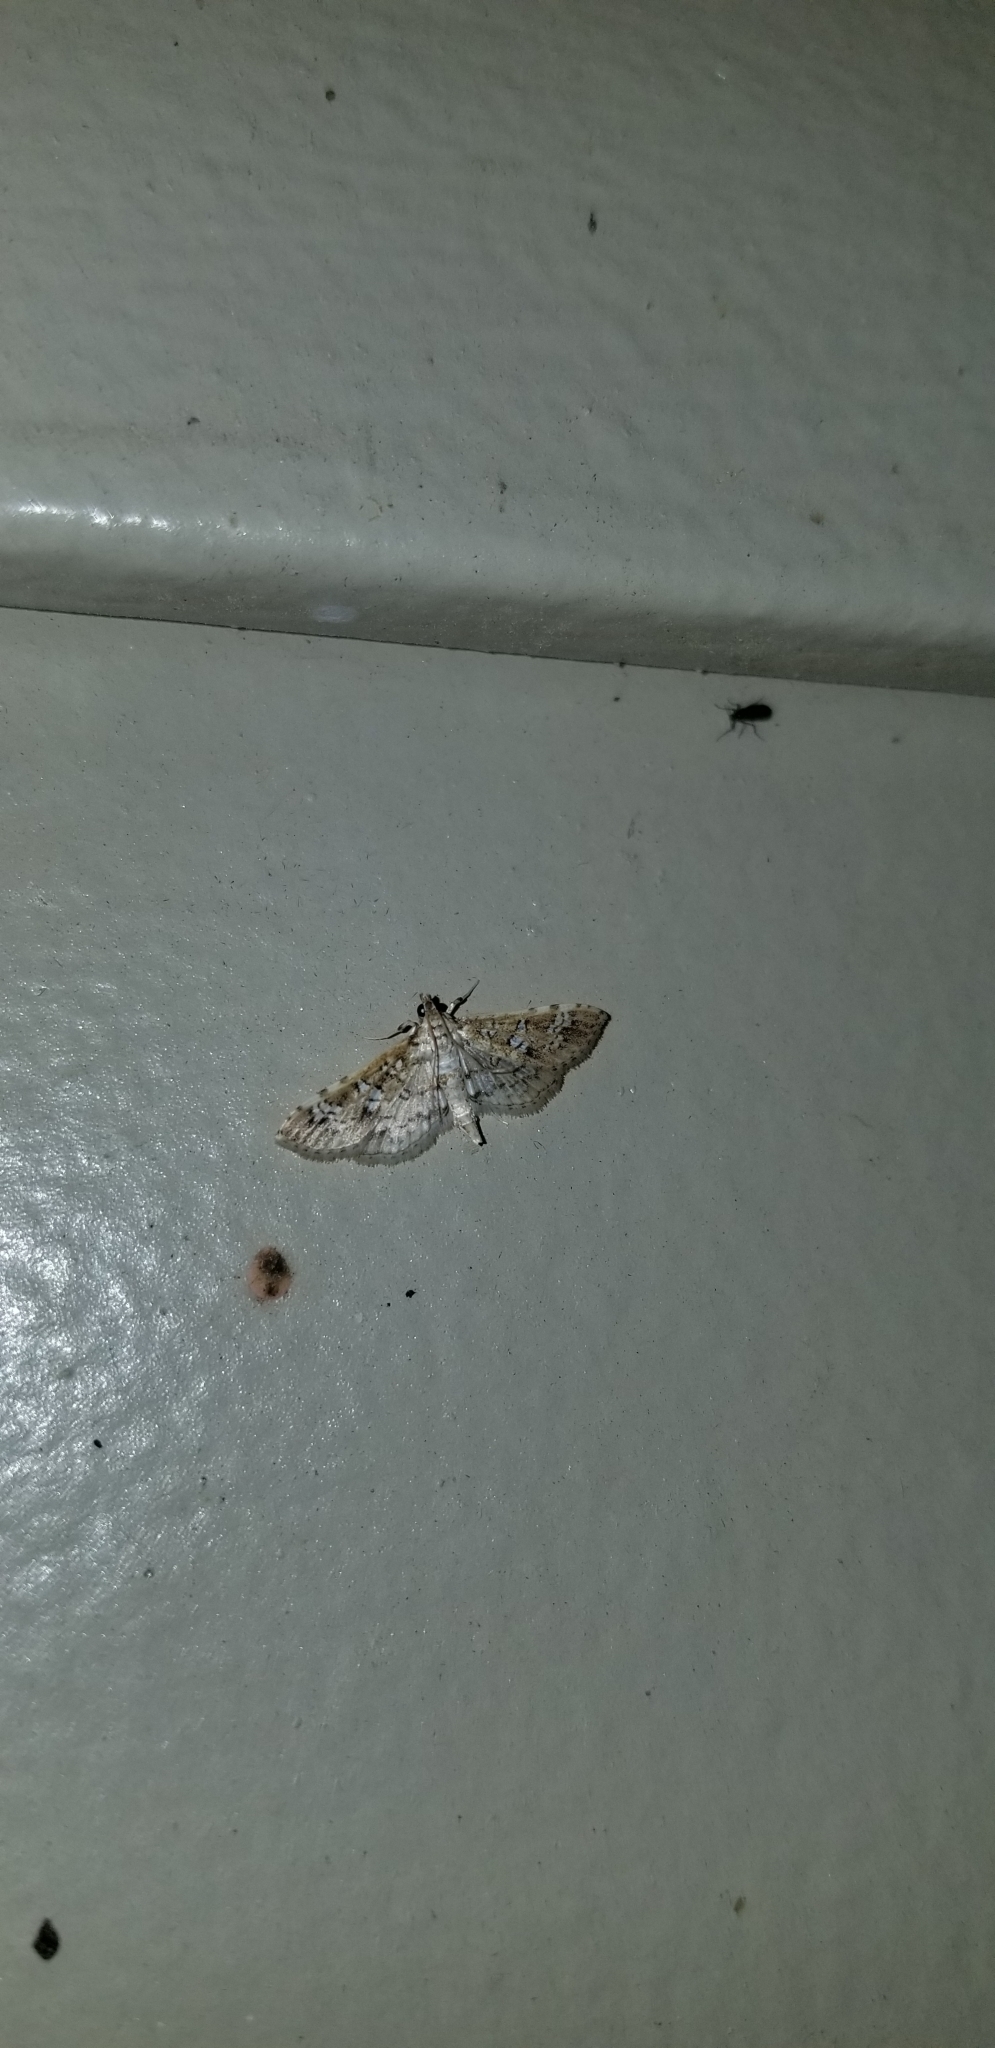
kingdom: Animalia
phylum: Arthropoda
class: Insecta
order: Lepidoptera
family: Crambidae
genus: Samea
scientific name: Samea multiplicalis
